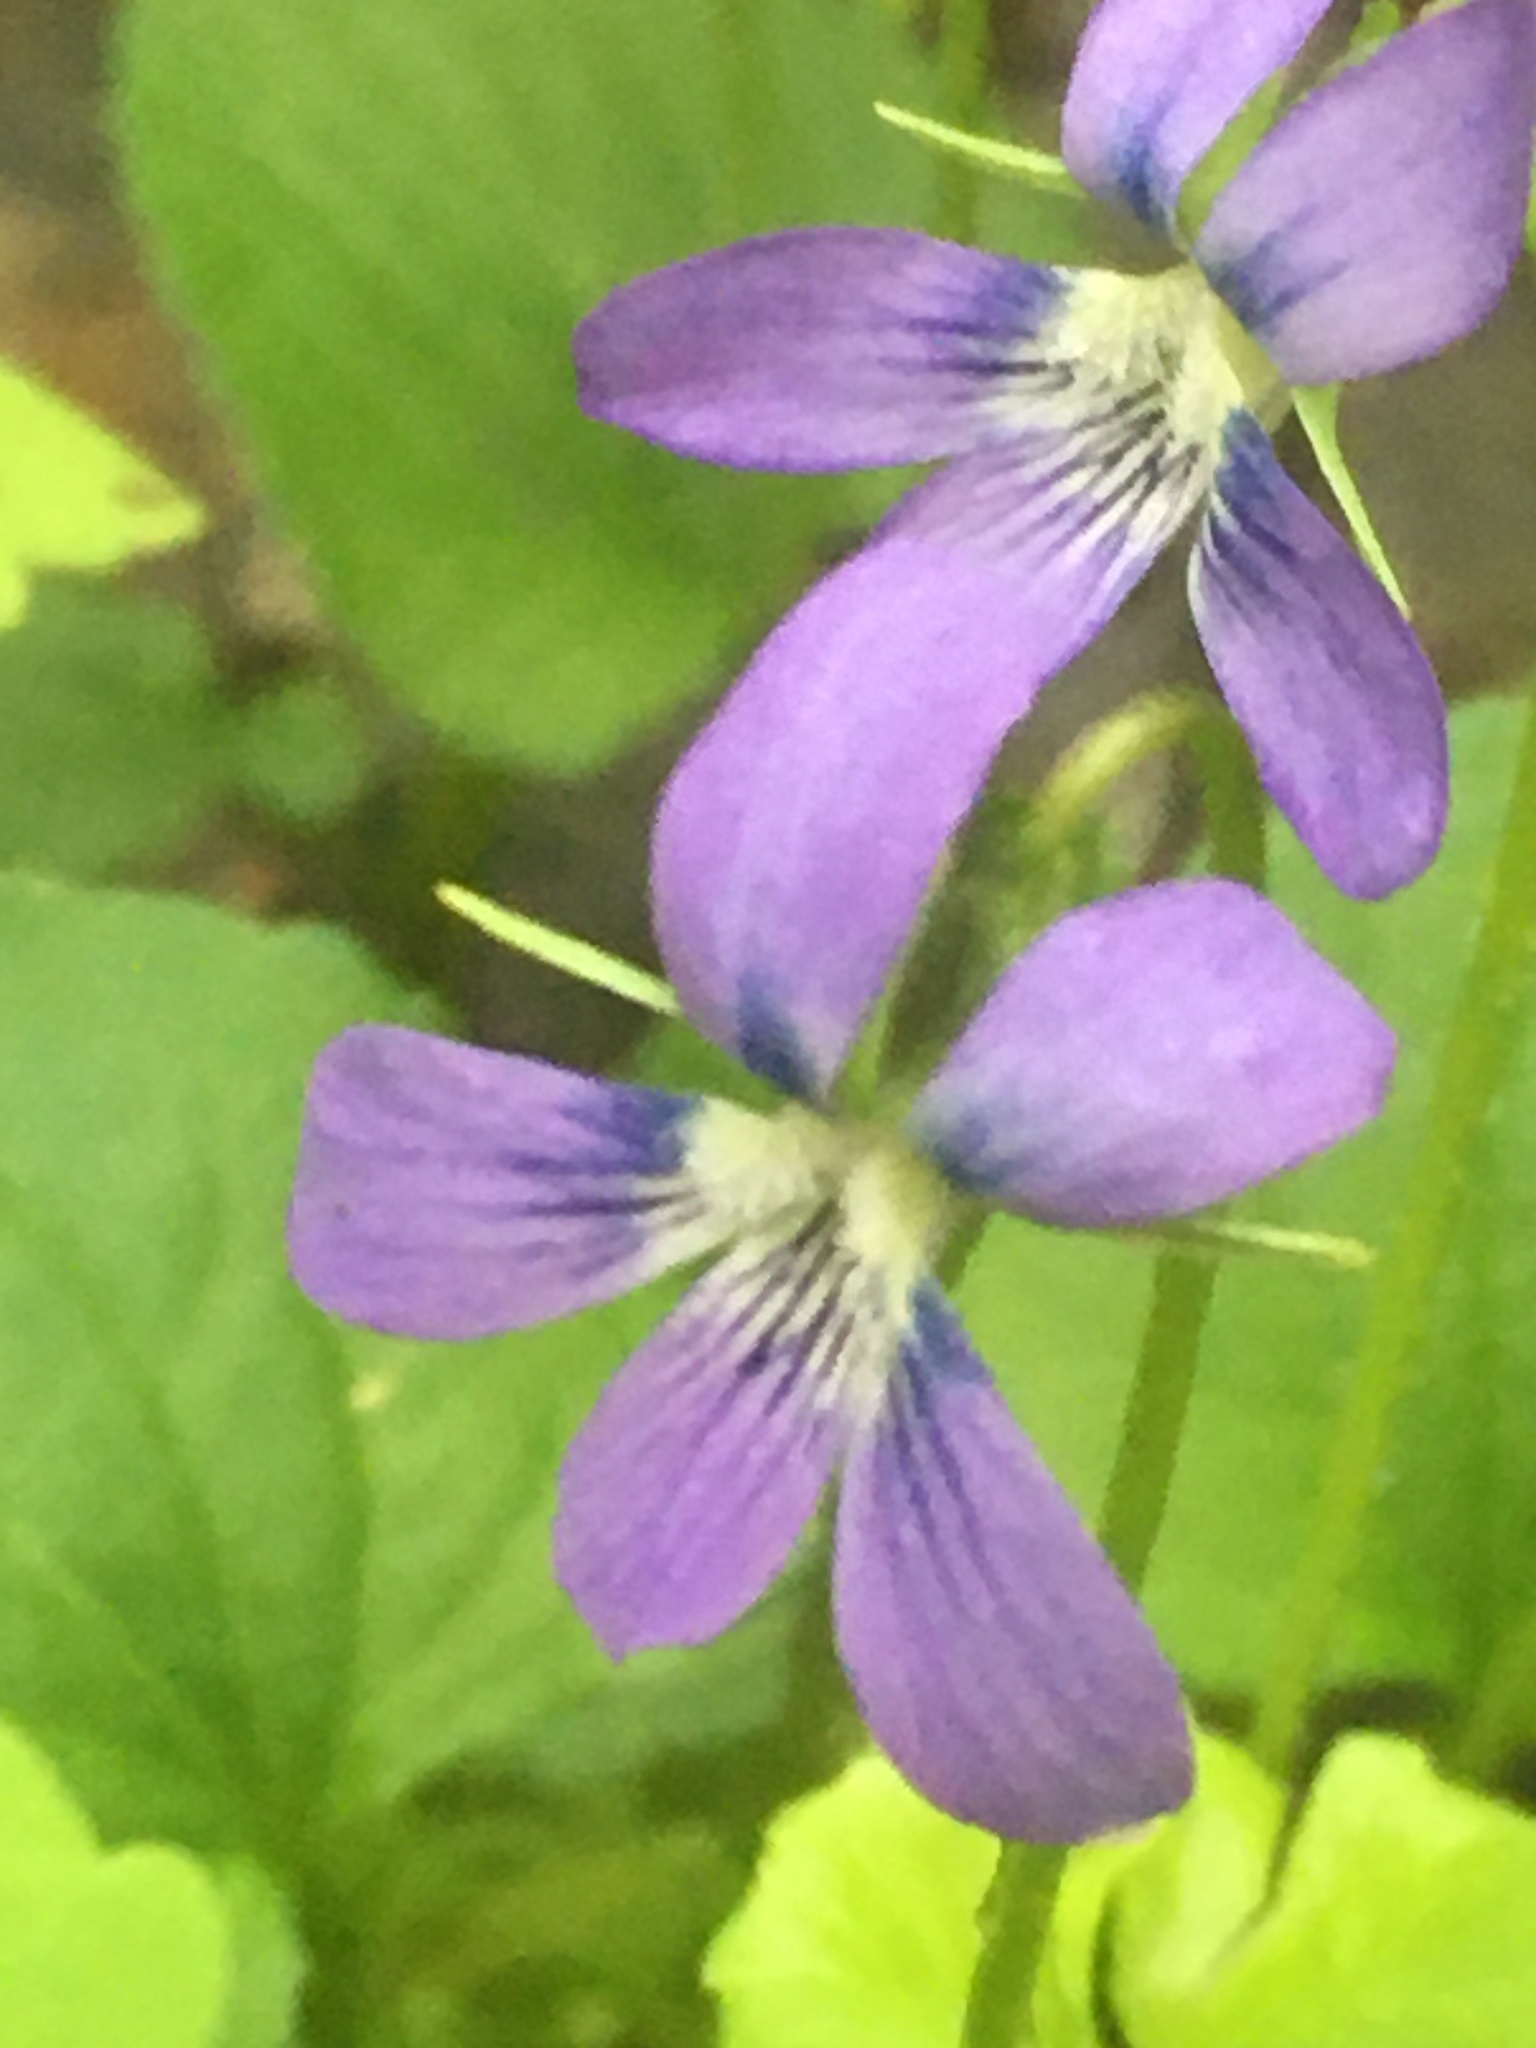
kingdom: Plantae
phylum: Tracheophyta
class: Magnoliopsida
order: Malpighiales
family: Violaceae
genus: Viola
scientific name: Viola cucullata
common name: Marsh blue violet
